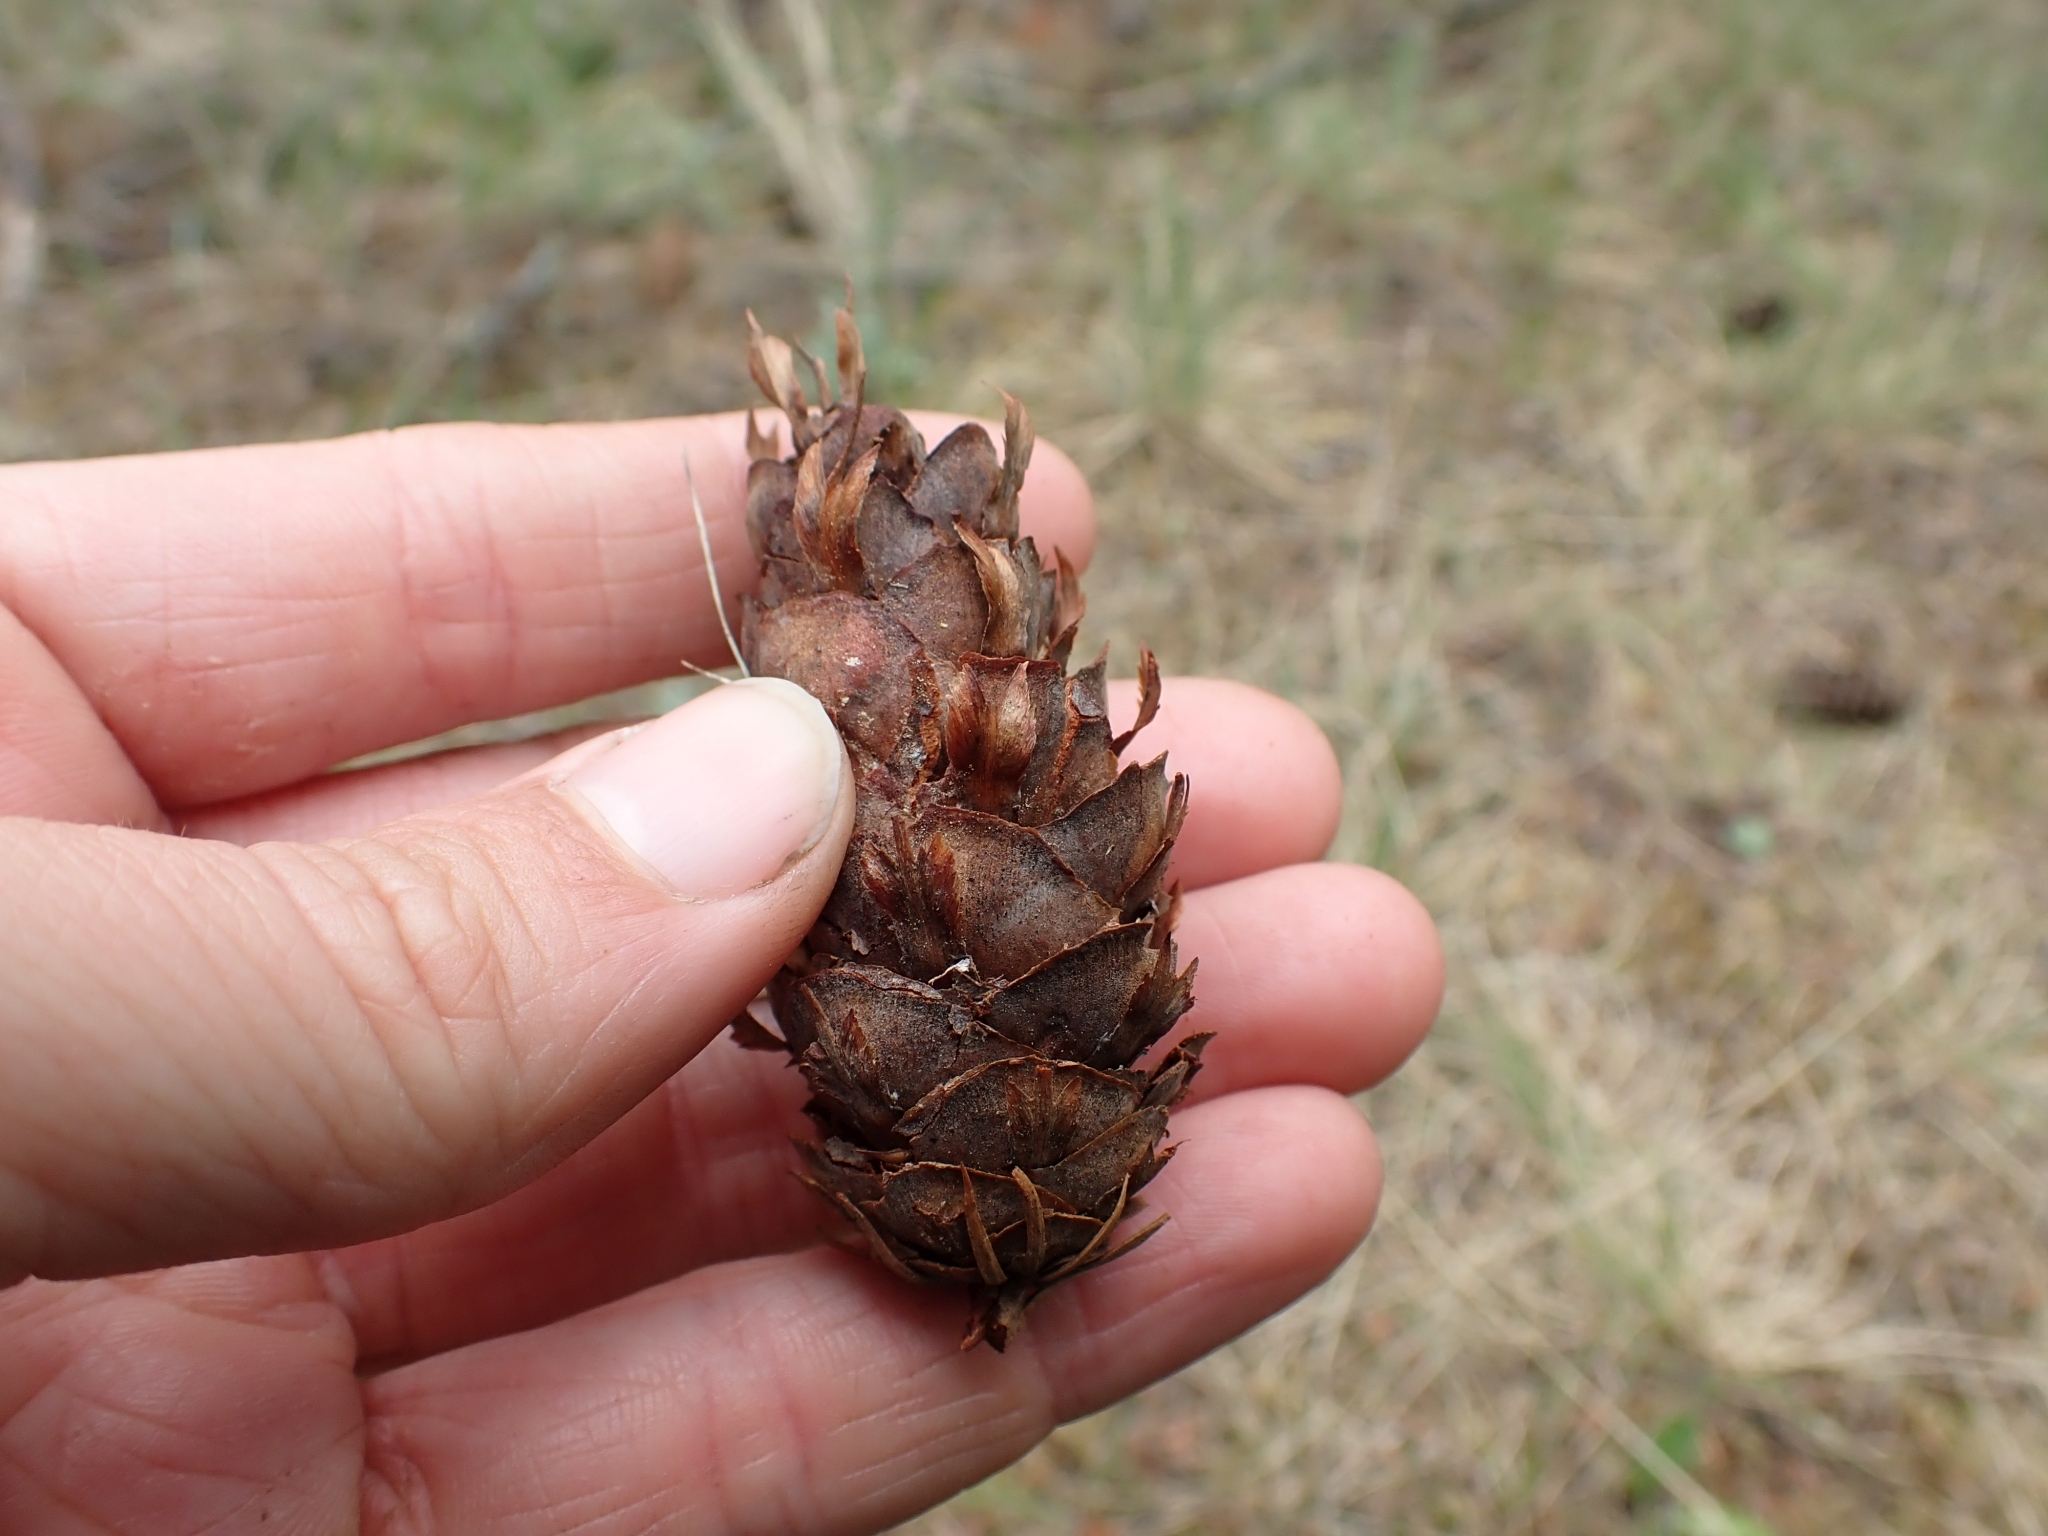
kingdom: Plantae
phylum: Tracheophyta
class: Pinopsida
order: Pinales
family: Pinaceae
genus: Pseudotsuga
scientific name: Pseudotsuga menziesii
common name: Douglas fir
